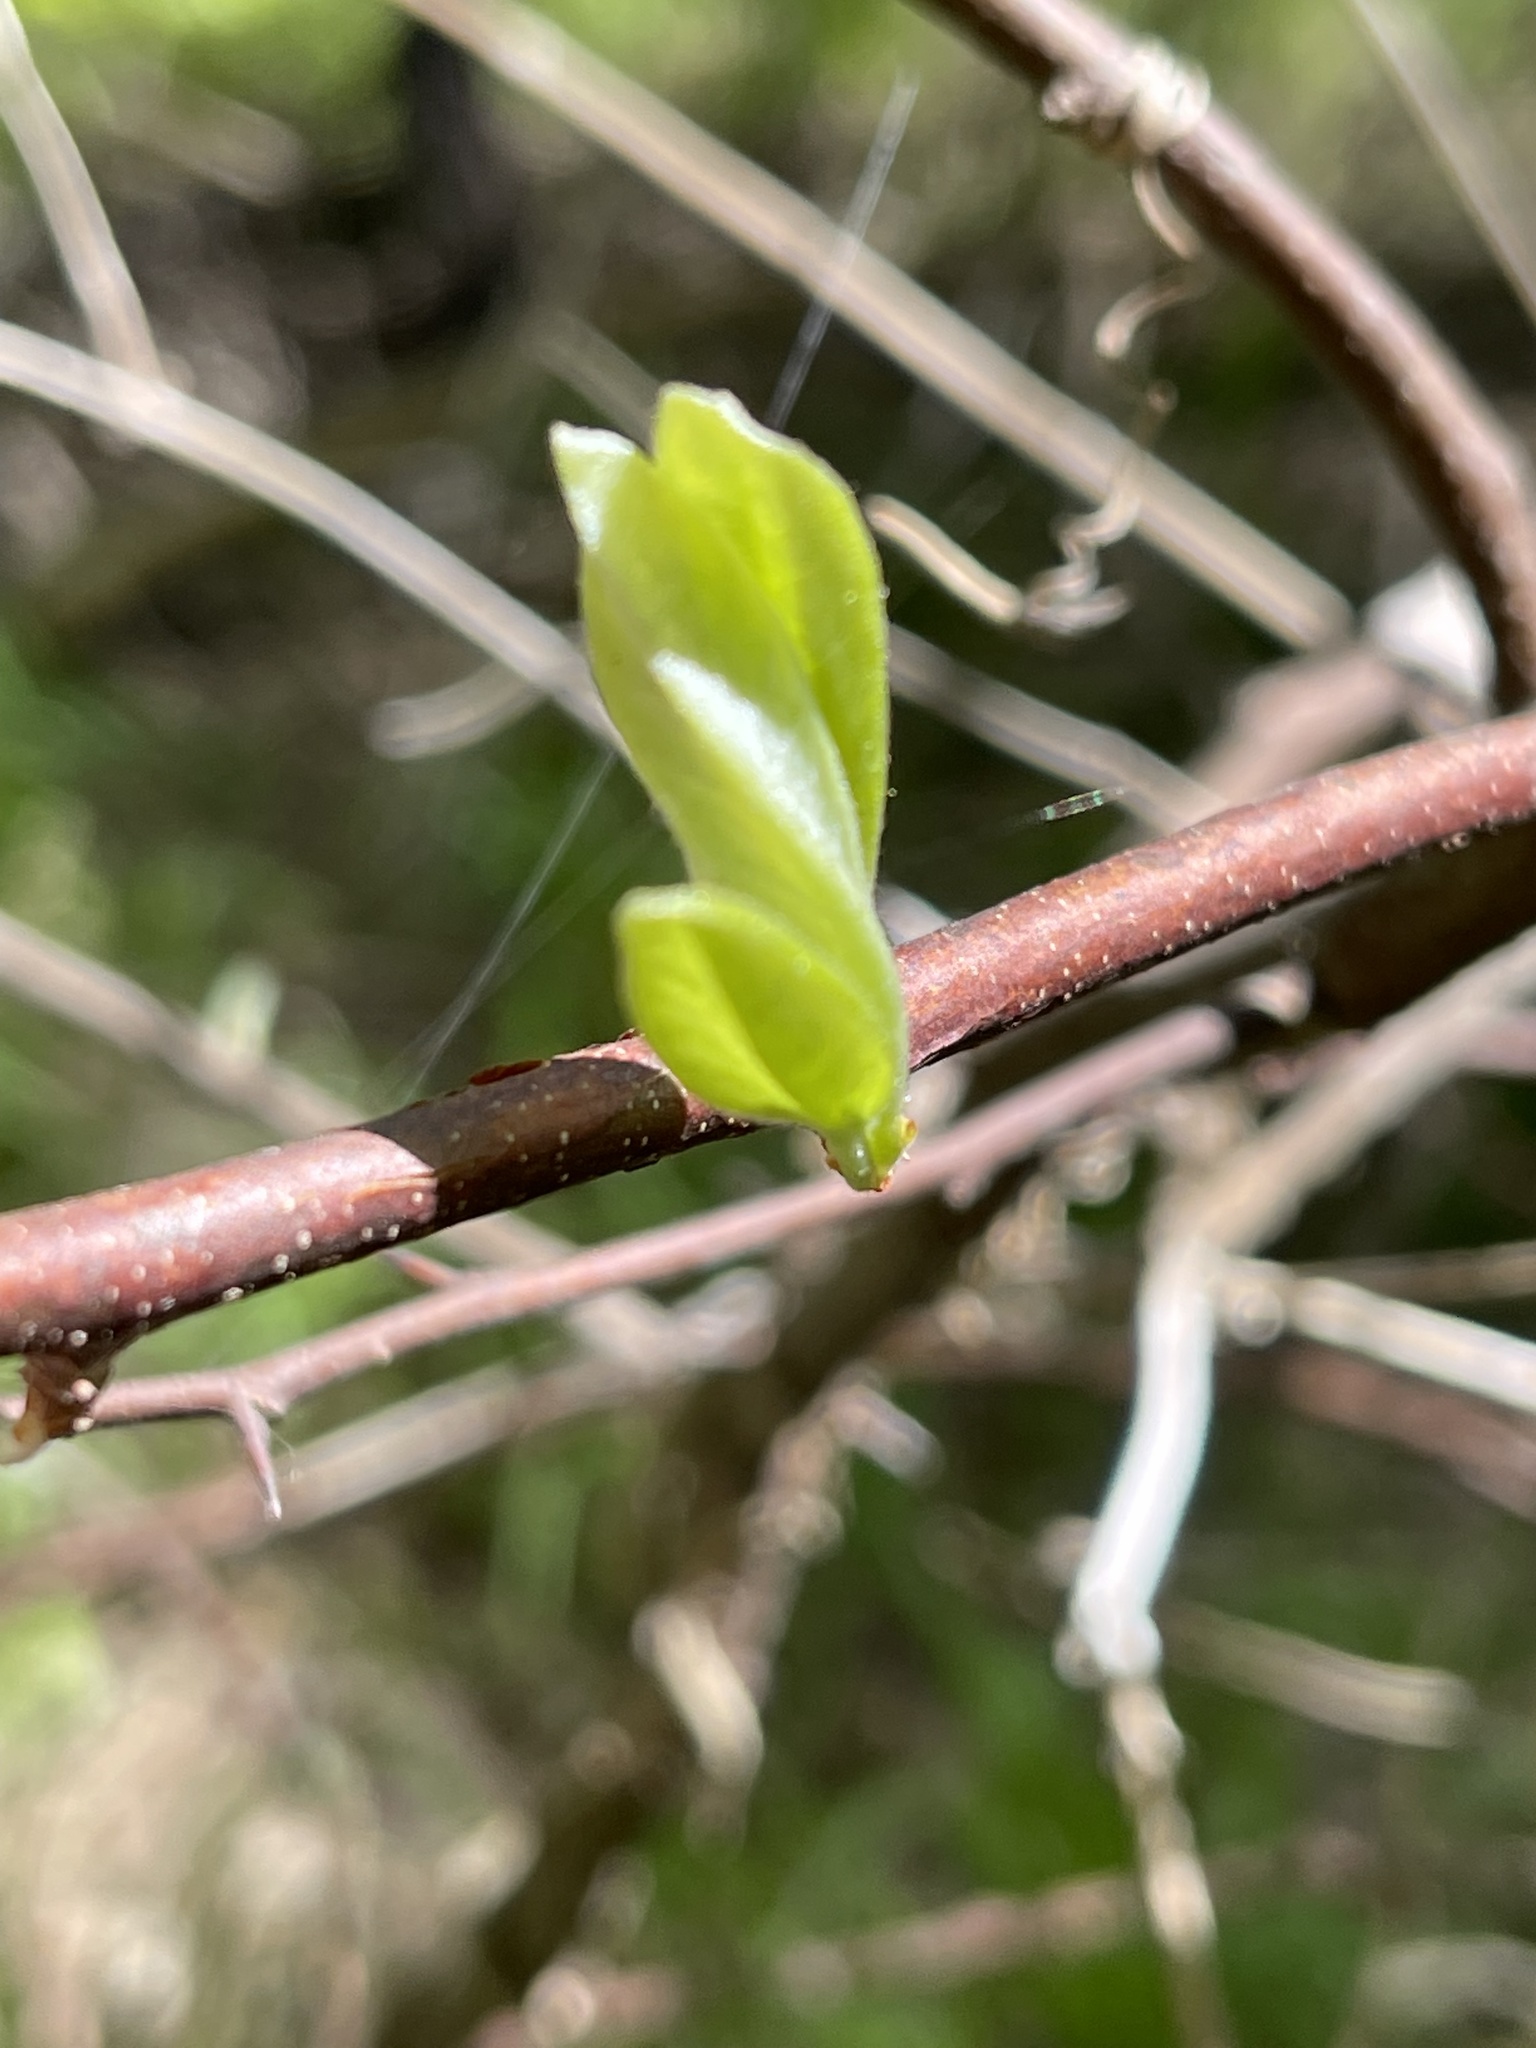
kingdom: Plantae
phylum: Tracheophyta
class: Magnoliopsida
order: Ericales
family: Sapotaceae
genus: Sideroxylon
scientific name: Sideroxylon lanuginosum
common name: Chittamwood
